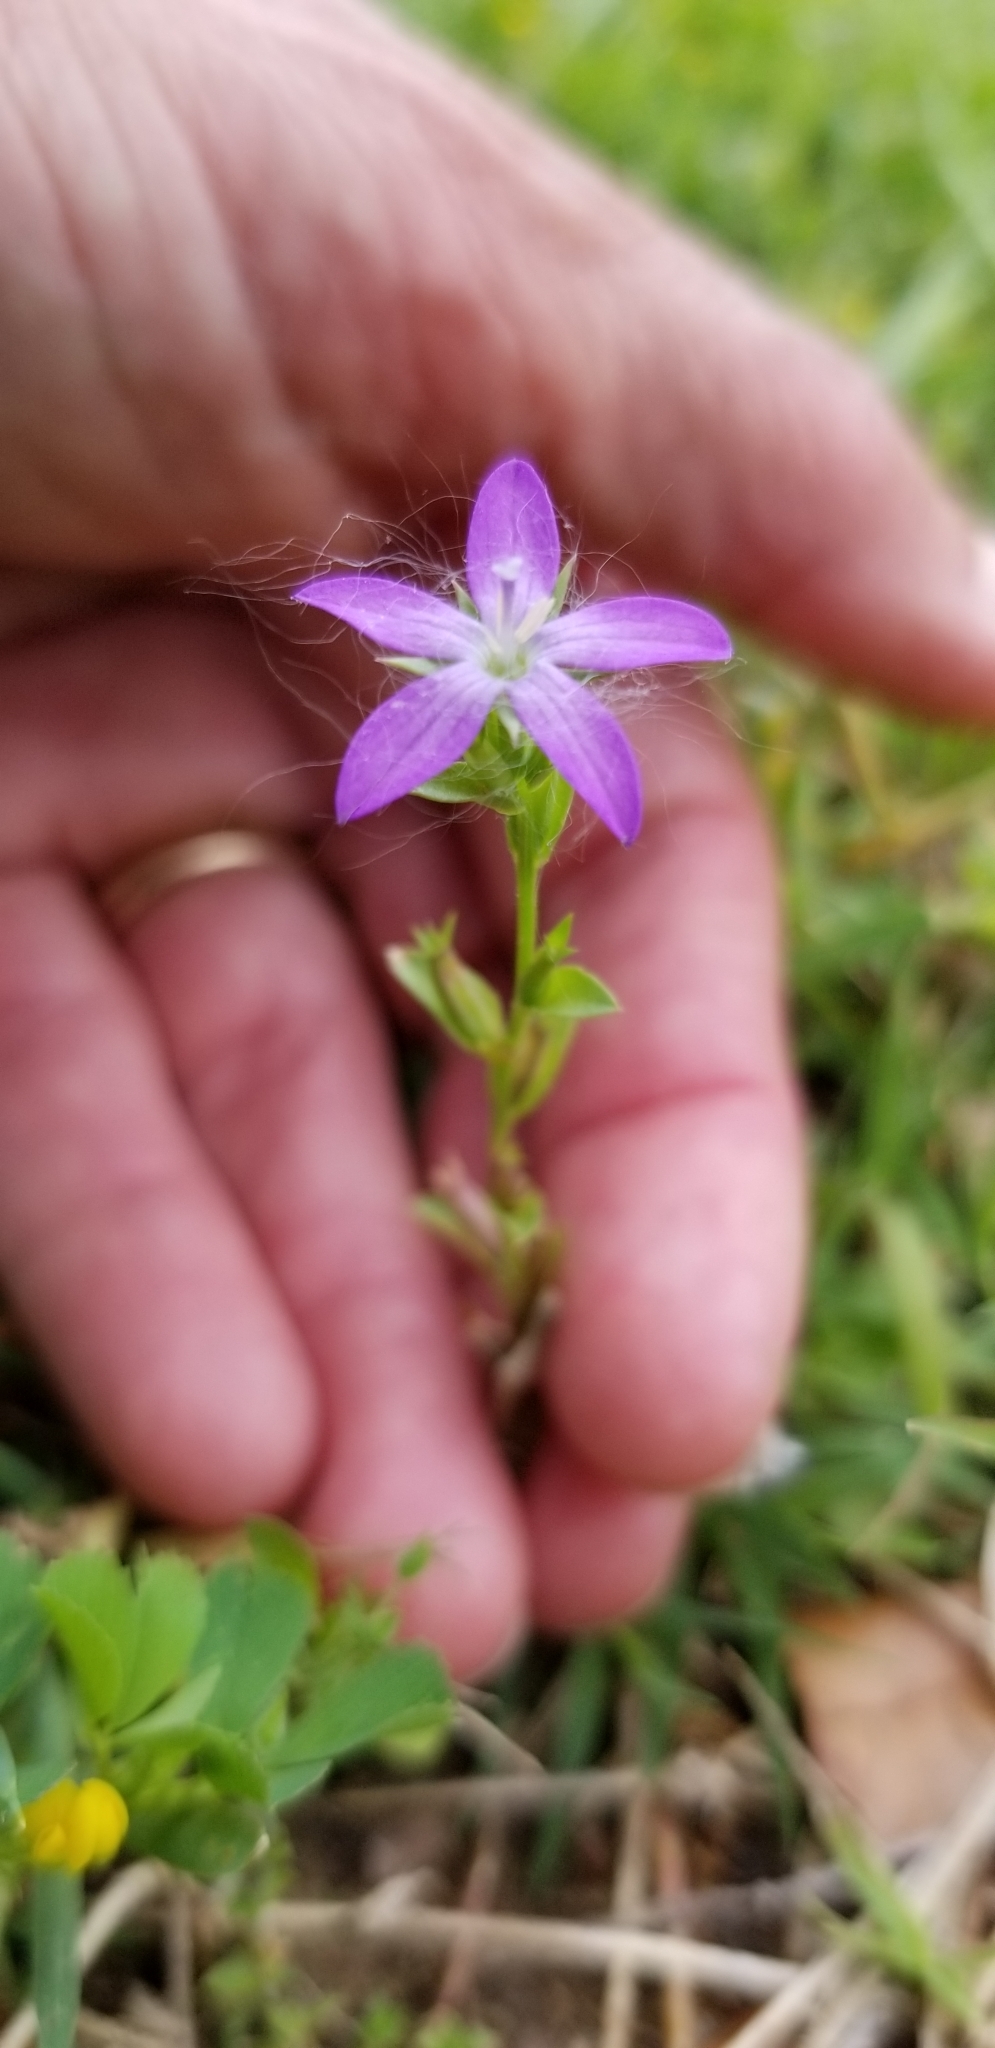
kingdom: Plantae
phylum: Tracheophyta
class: Magnoliopsida
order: Asterales
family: Campanulaceae
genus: Triodanis
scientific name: Triodanis biflora
